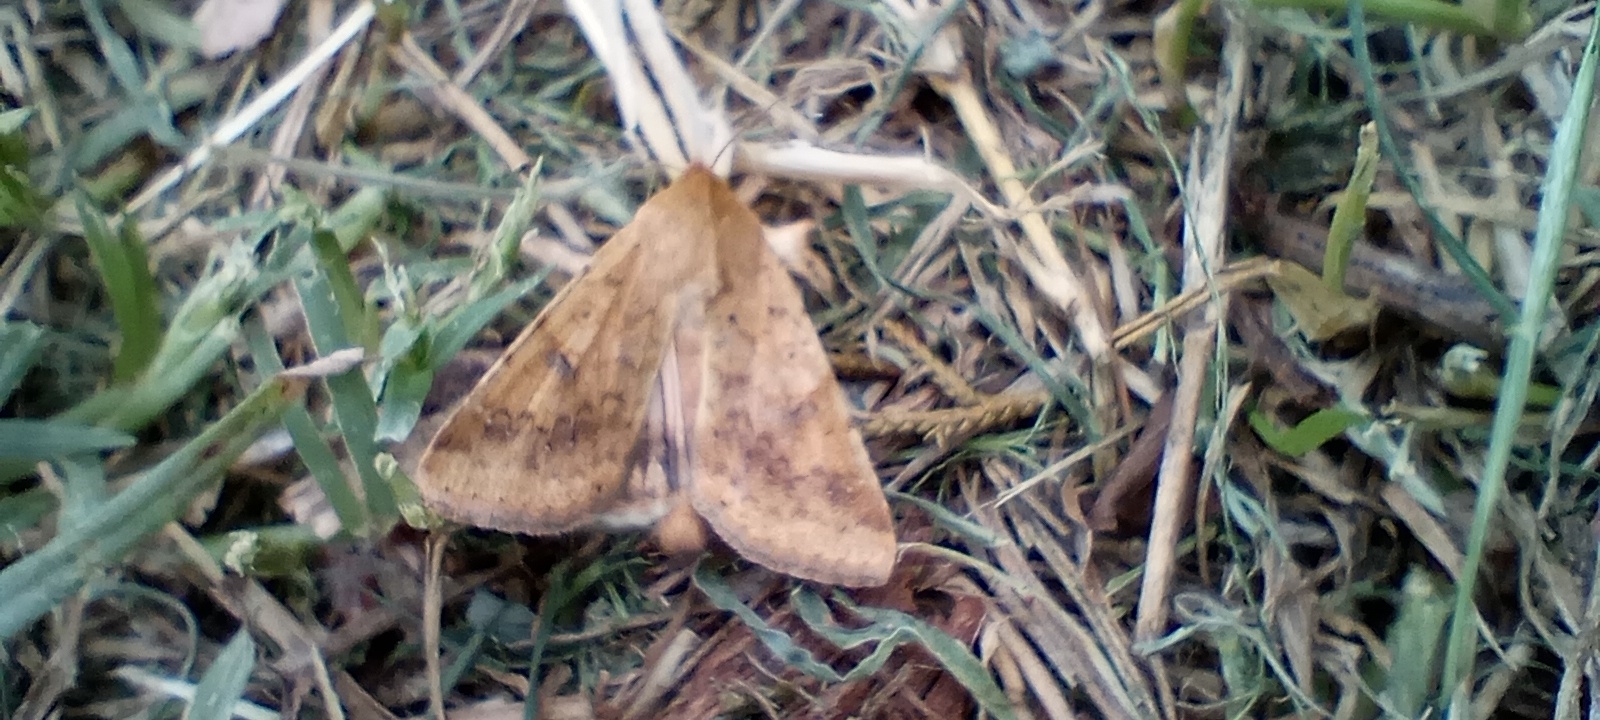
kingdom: Animalia
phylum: Arthropoda
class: Insecta
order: Lepidoptera
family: Noctuidae
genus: Helicoverpa
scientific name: Helicoverpa
